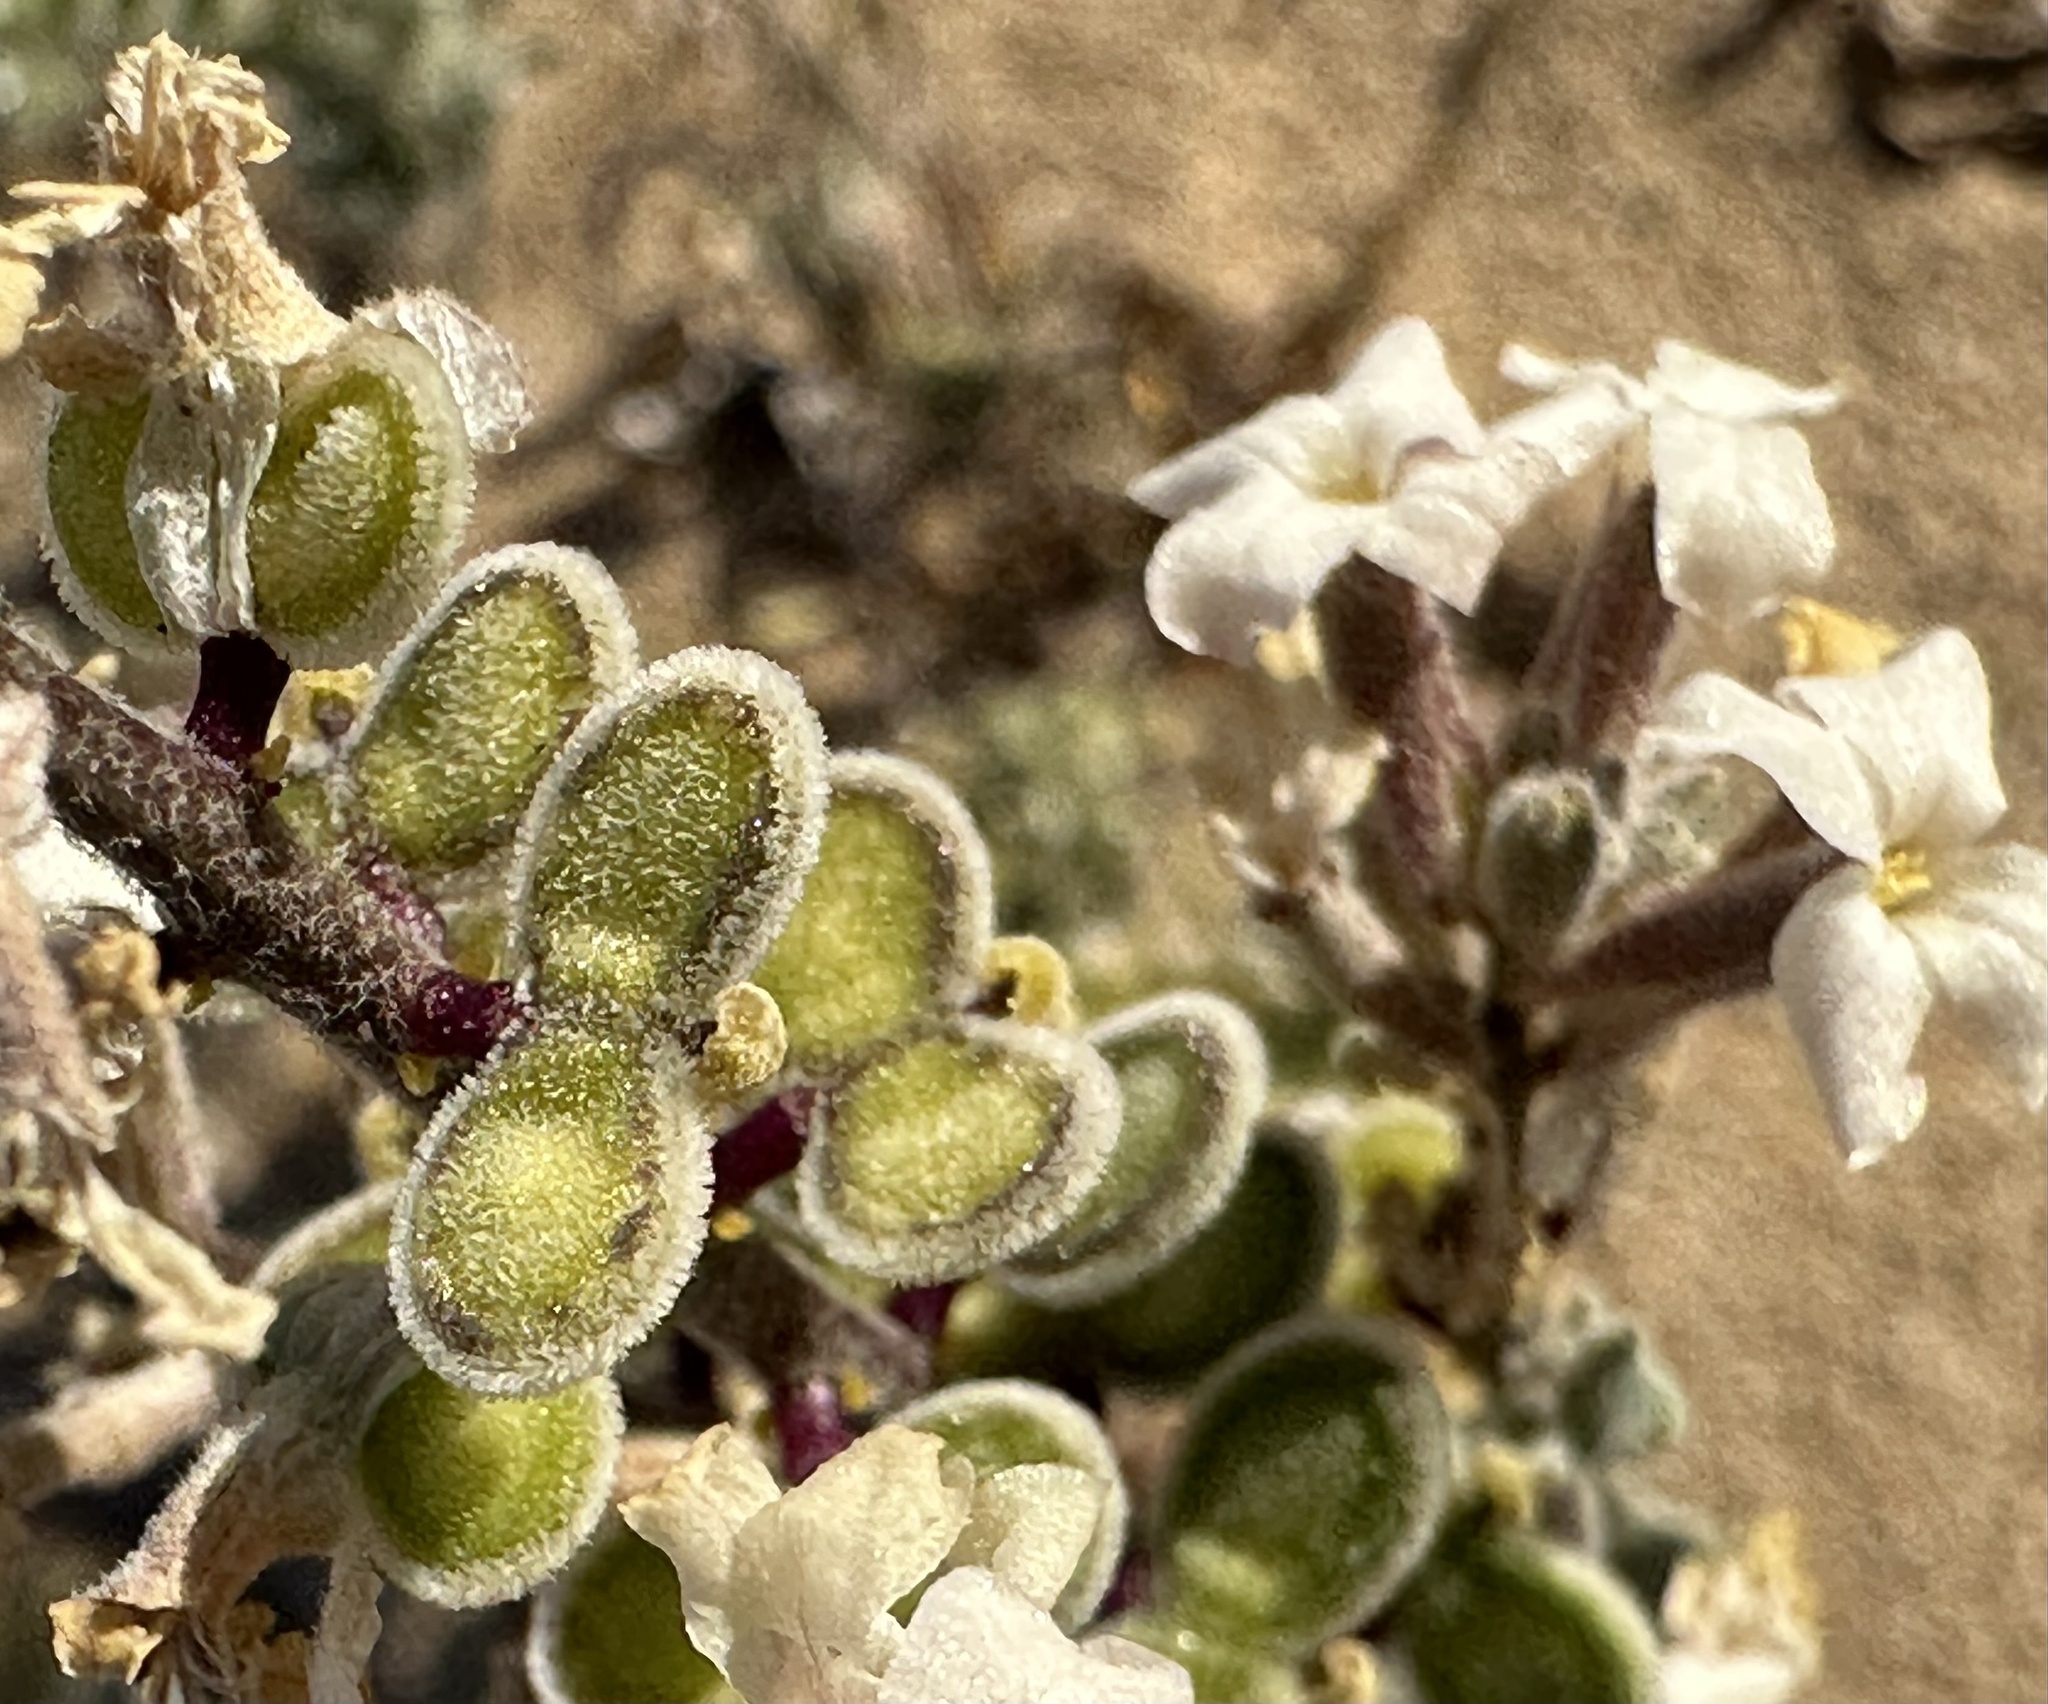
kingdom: Plantae
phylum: Tracheophyta
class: Magnoliopsida
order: Brassicales
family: Brassicaceae
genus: Dithyrea
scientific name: Dithyrea californica
